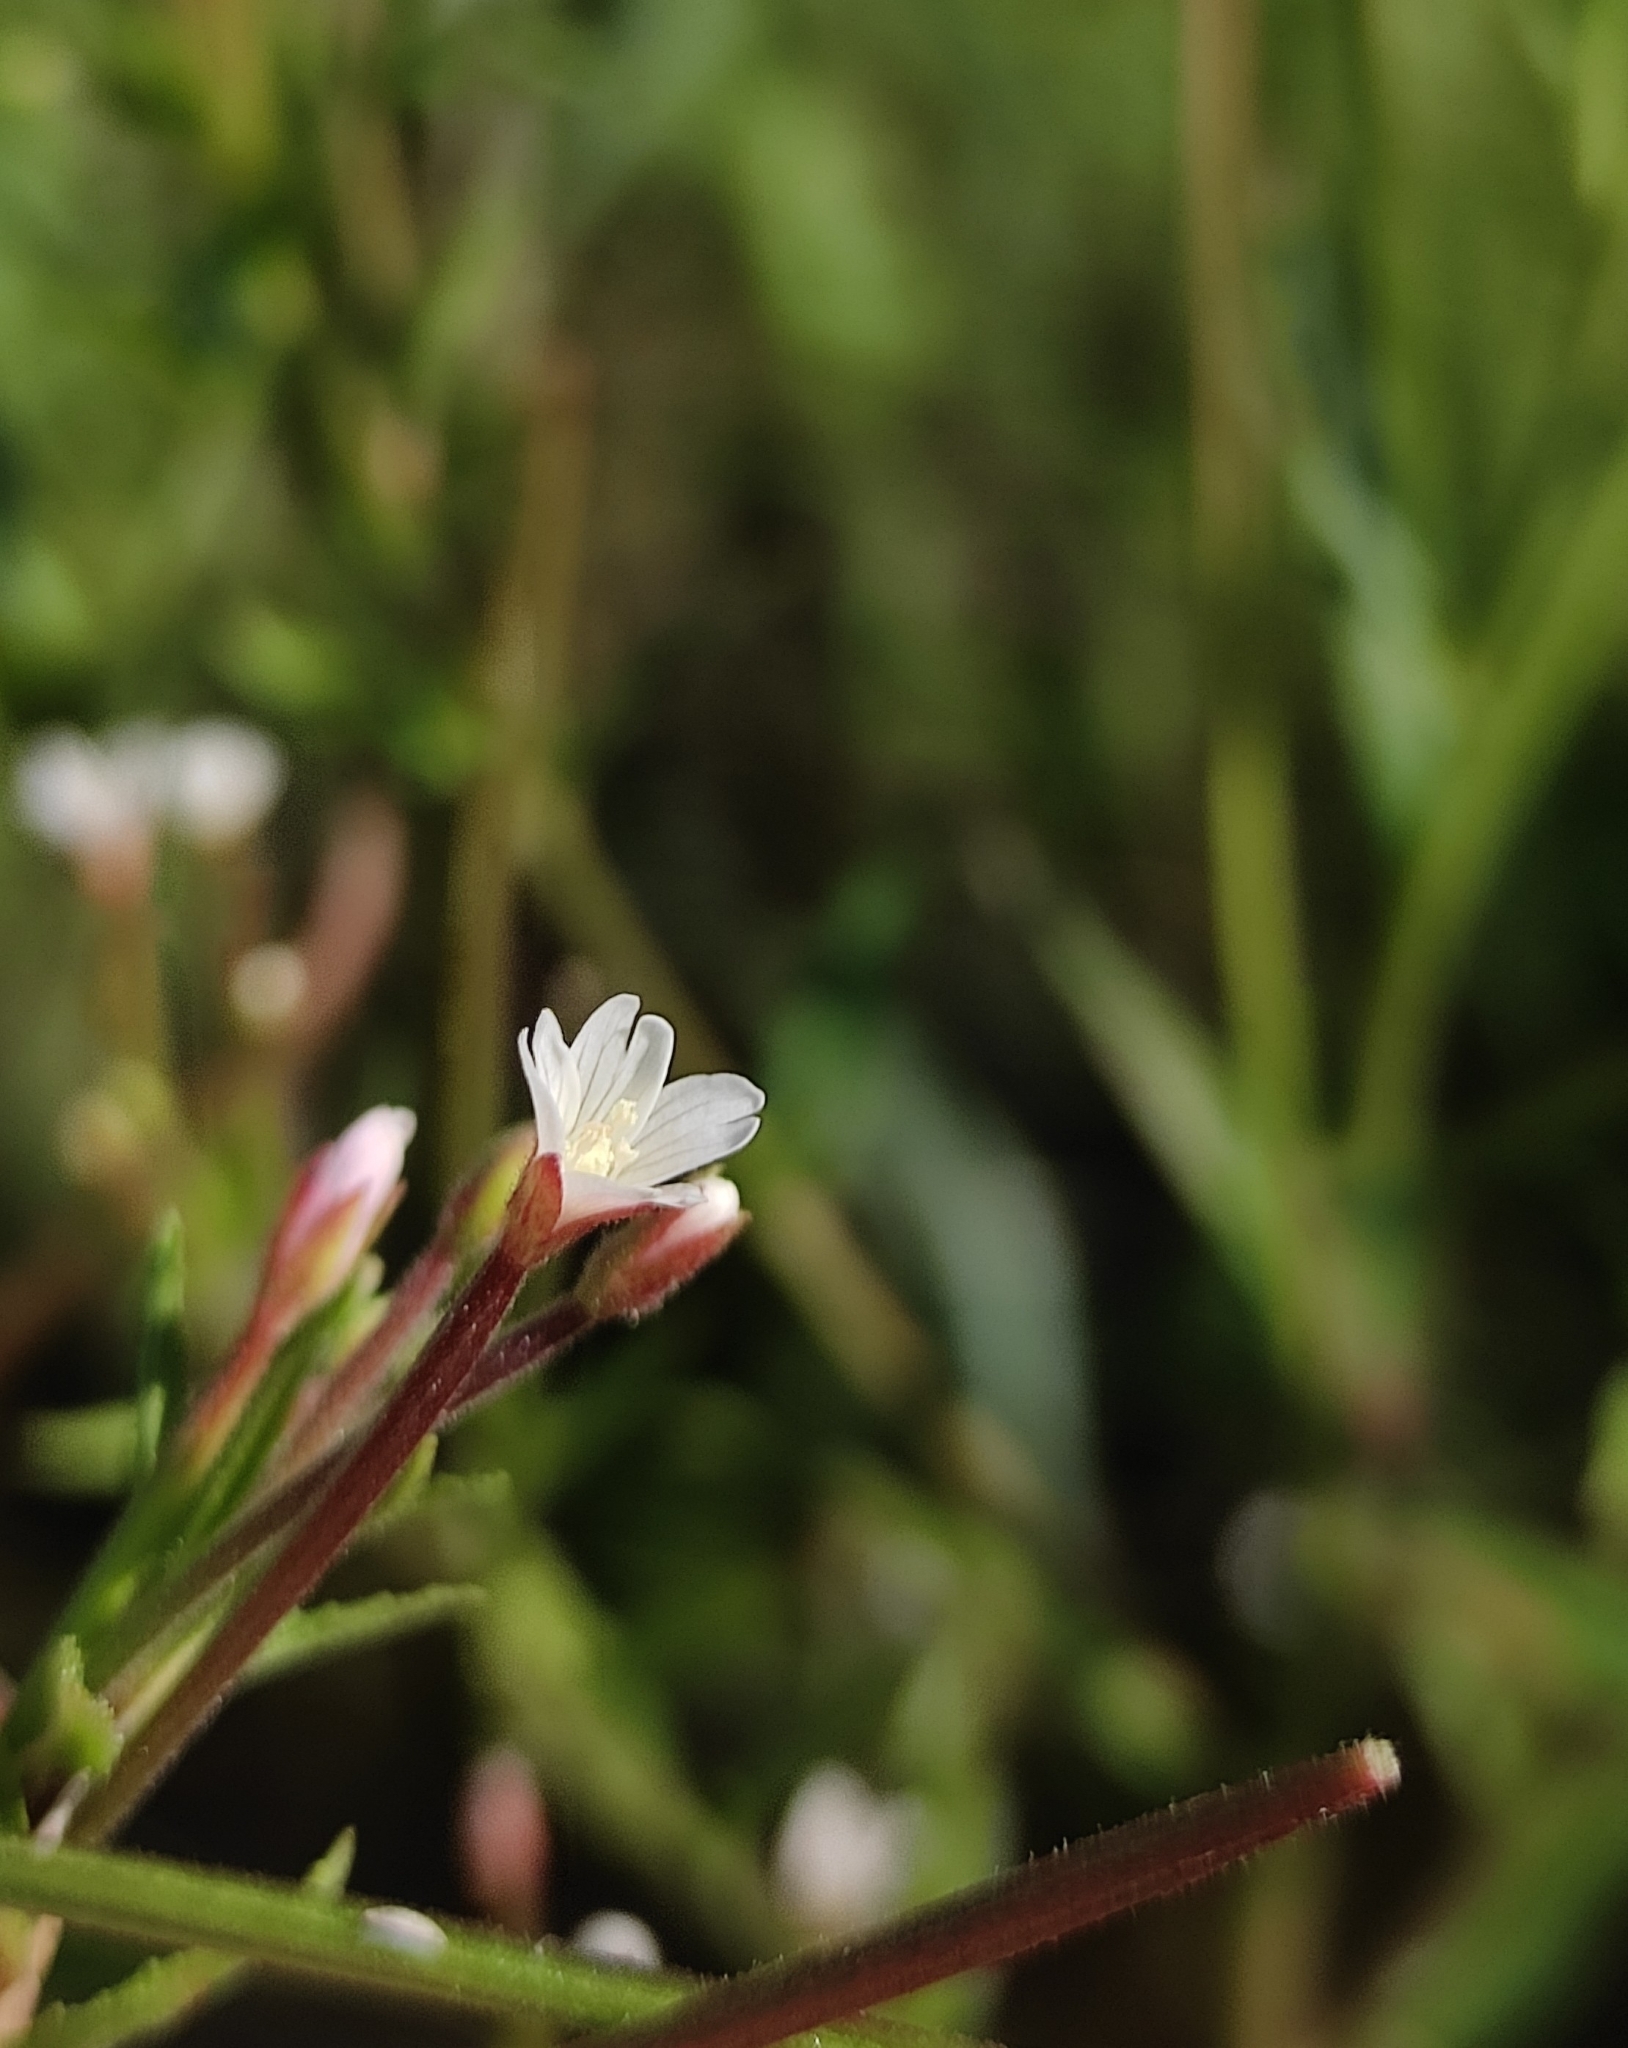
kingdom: Plantae
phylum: Tracheophyta
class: Magnoliopsida
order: Myrtales
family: Onagraceae
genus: Epilobium
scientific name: Epilobium pseudorubescens
